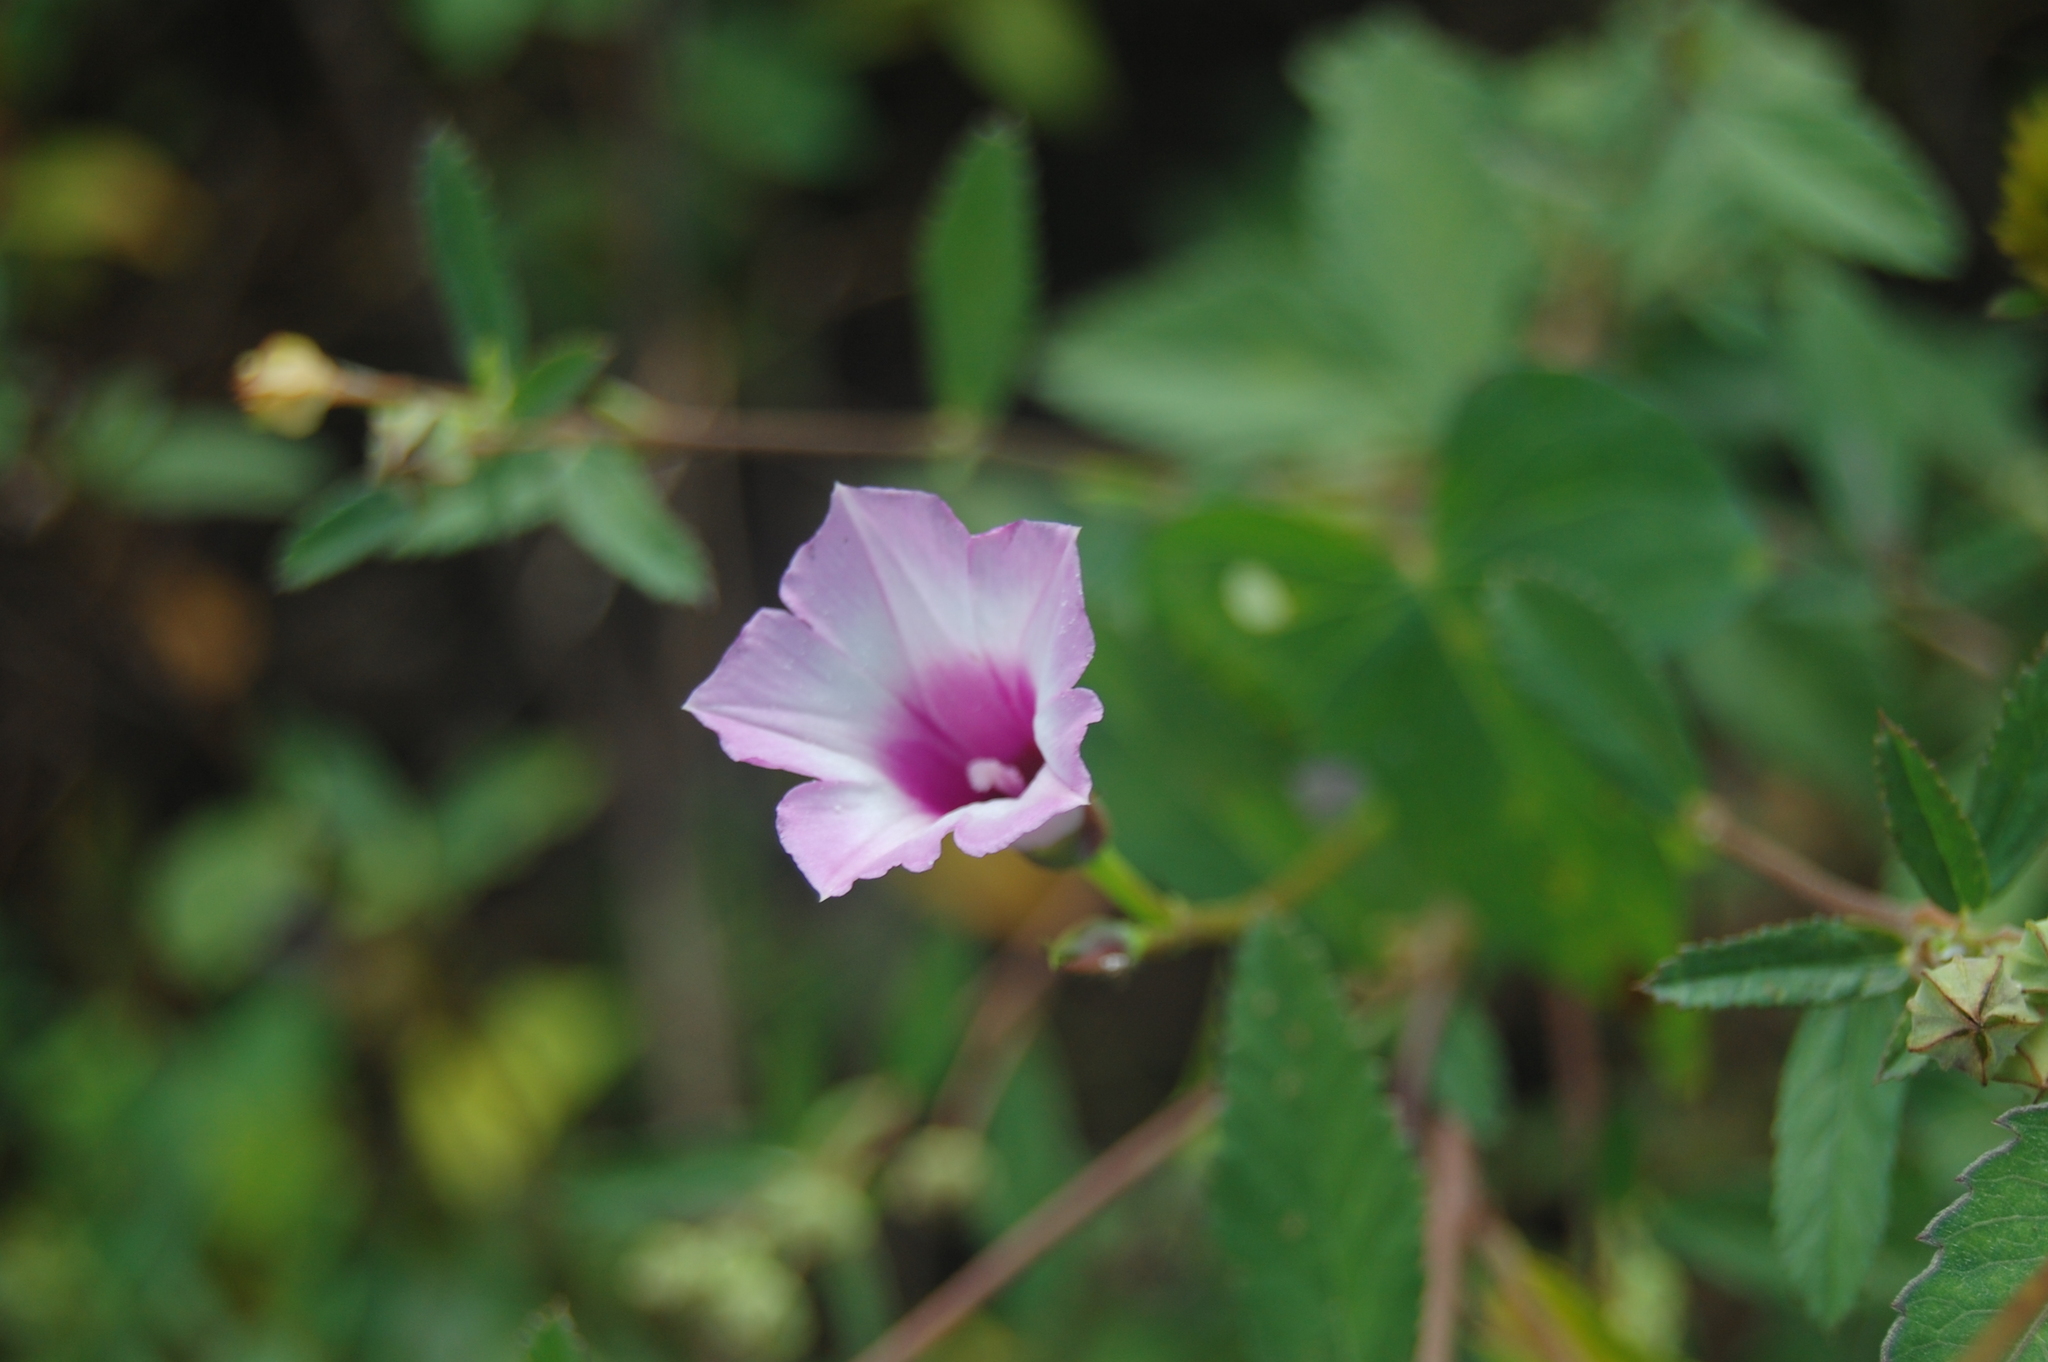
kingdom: Plantae
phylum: Tracheophyta
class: Magnoliopsida
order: Solanales
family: Convolvulaceae
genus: Ipomoea
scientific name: Ipomoea triloba
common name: Little-bell
